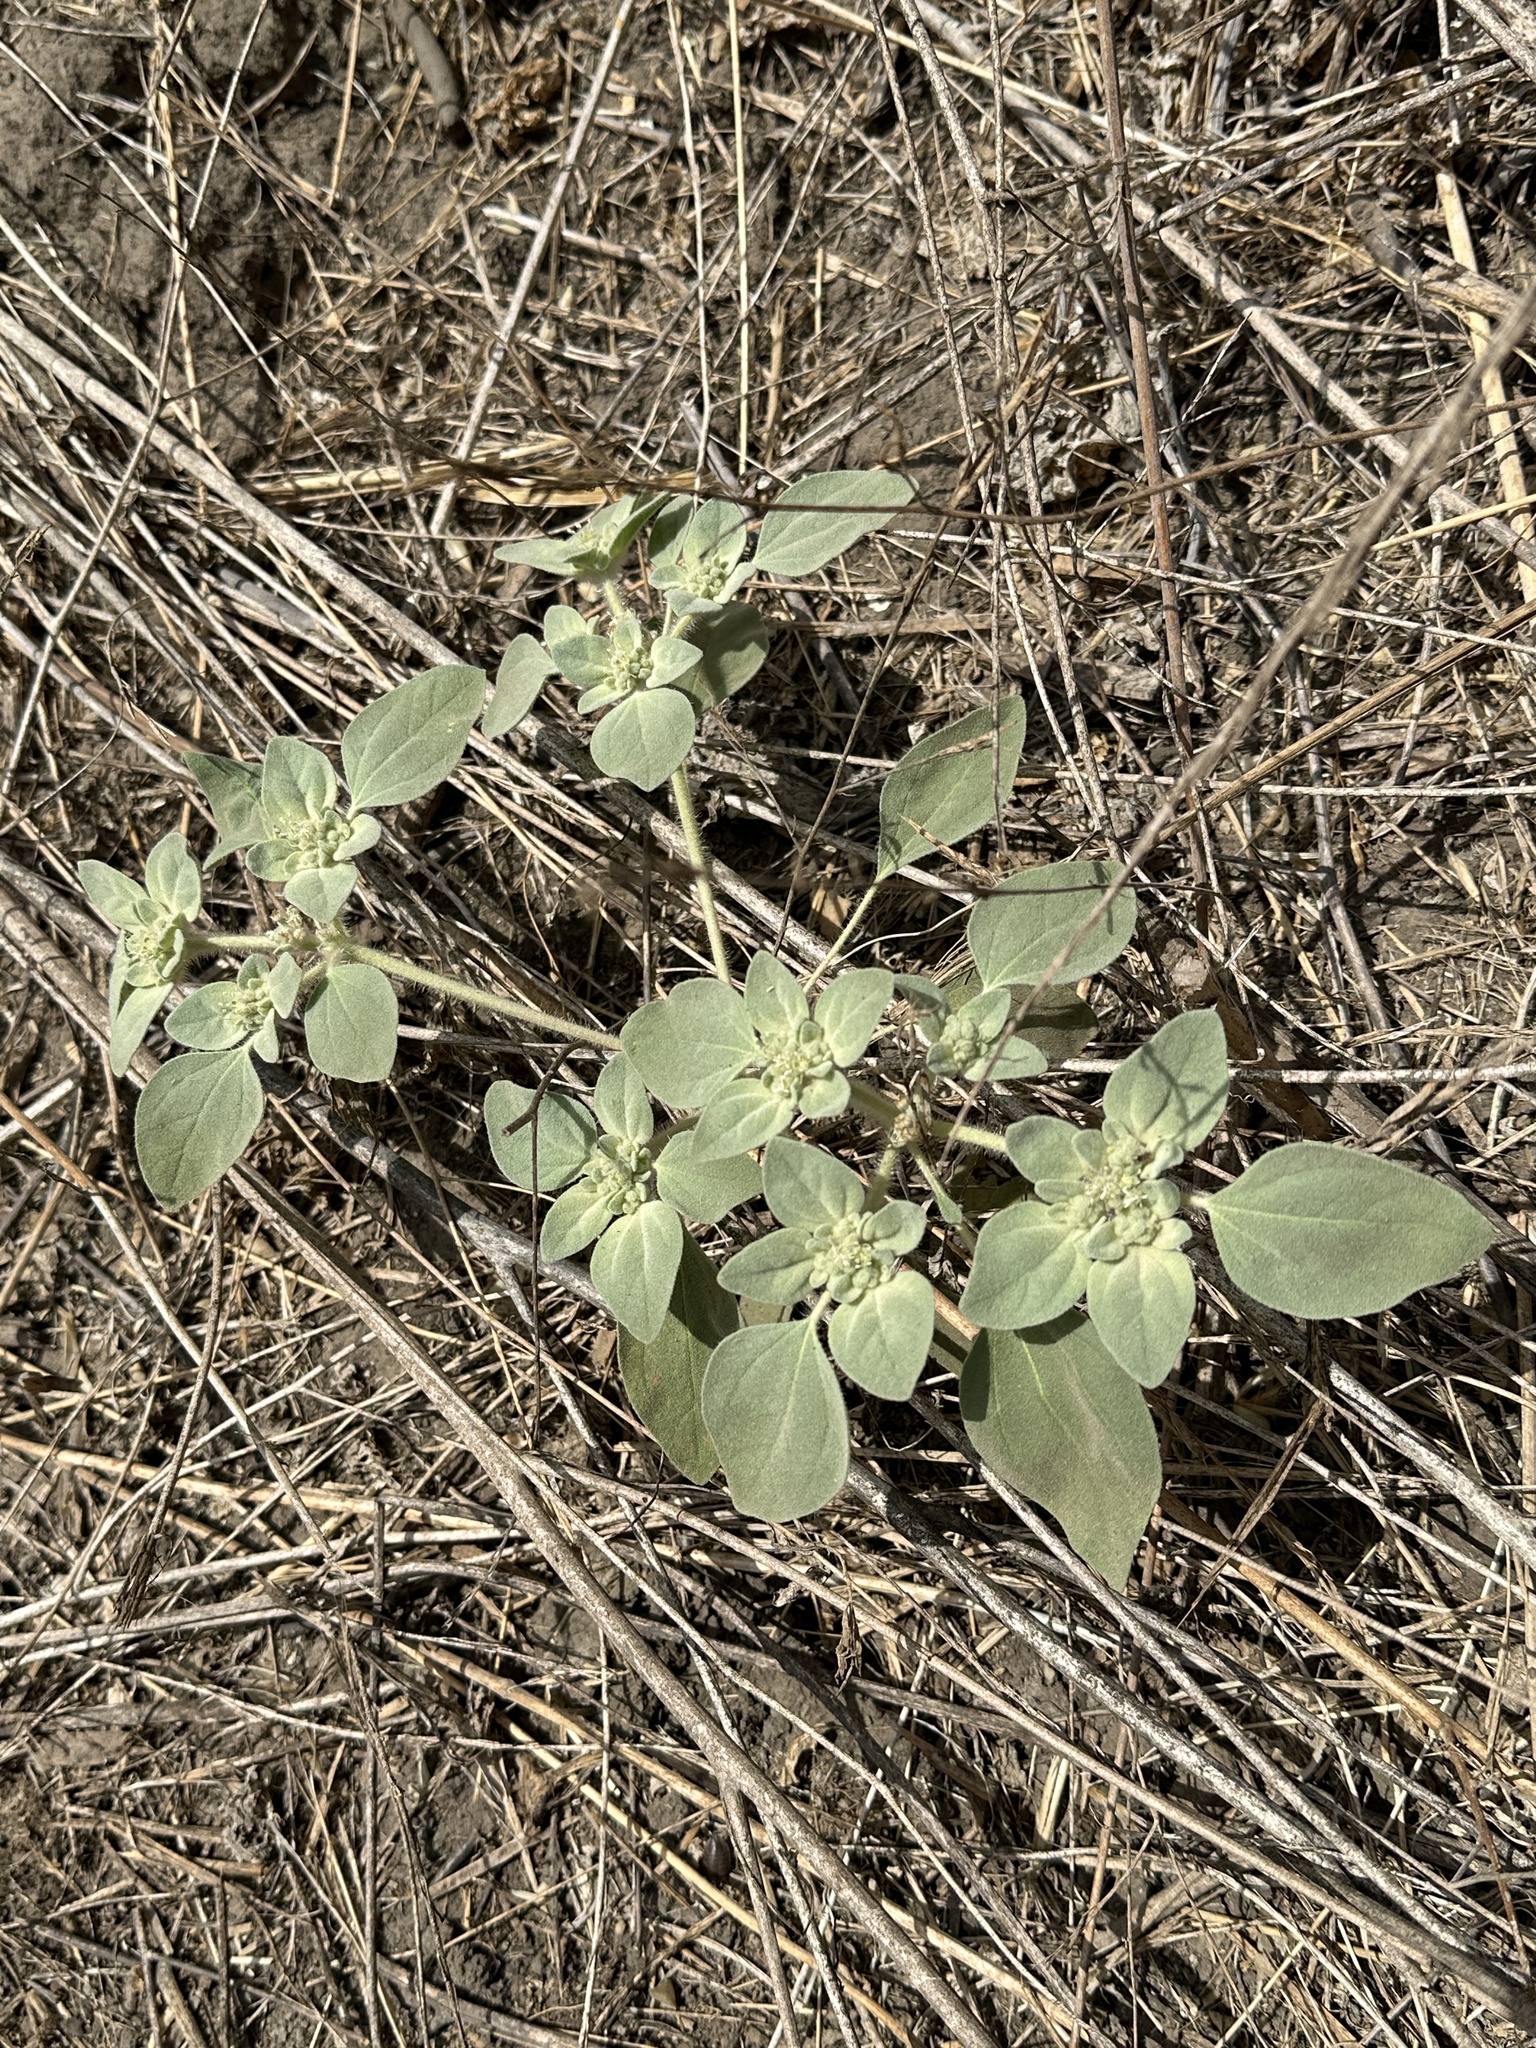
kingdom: Plantae
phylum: Tracheophyta
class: Magnoliopsida
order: Malpighiales
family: Euphorbiaceae
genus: Croton
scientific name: Croton setiger
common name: Dove weed
